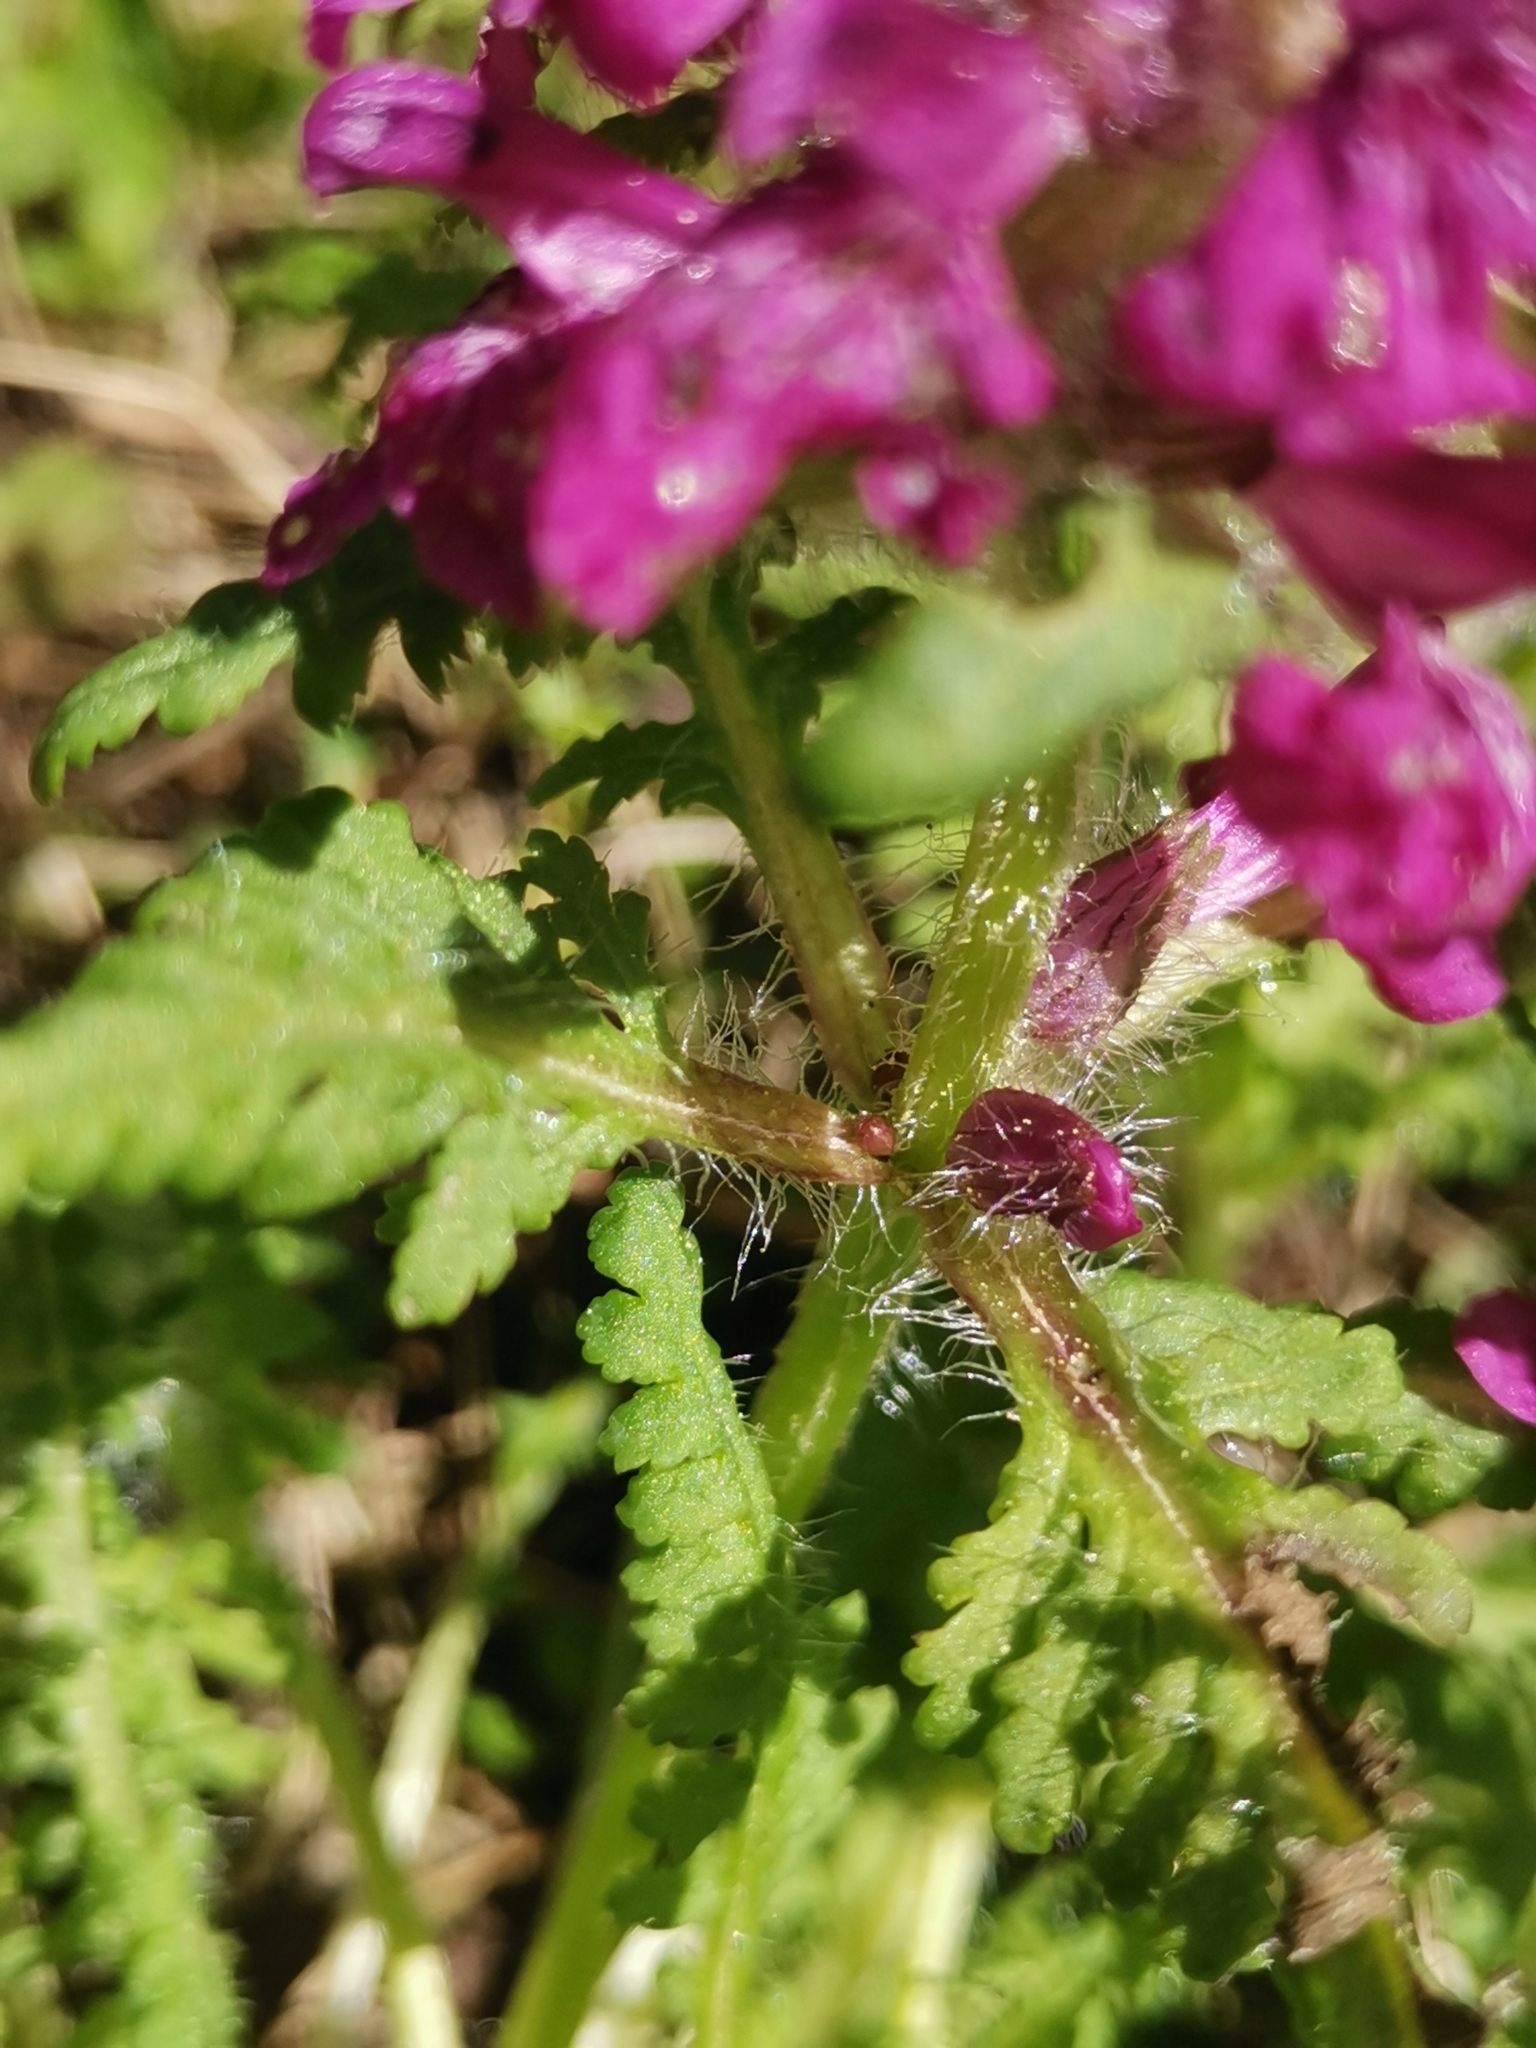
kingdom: Plantae
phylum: Tracheophyta
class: Magnoliopsida
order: Lamiales
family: Orobanchaceae
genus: Pedicularis
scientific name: Pedicularis verticillata
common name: Whorled lousewort
